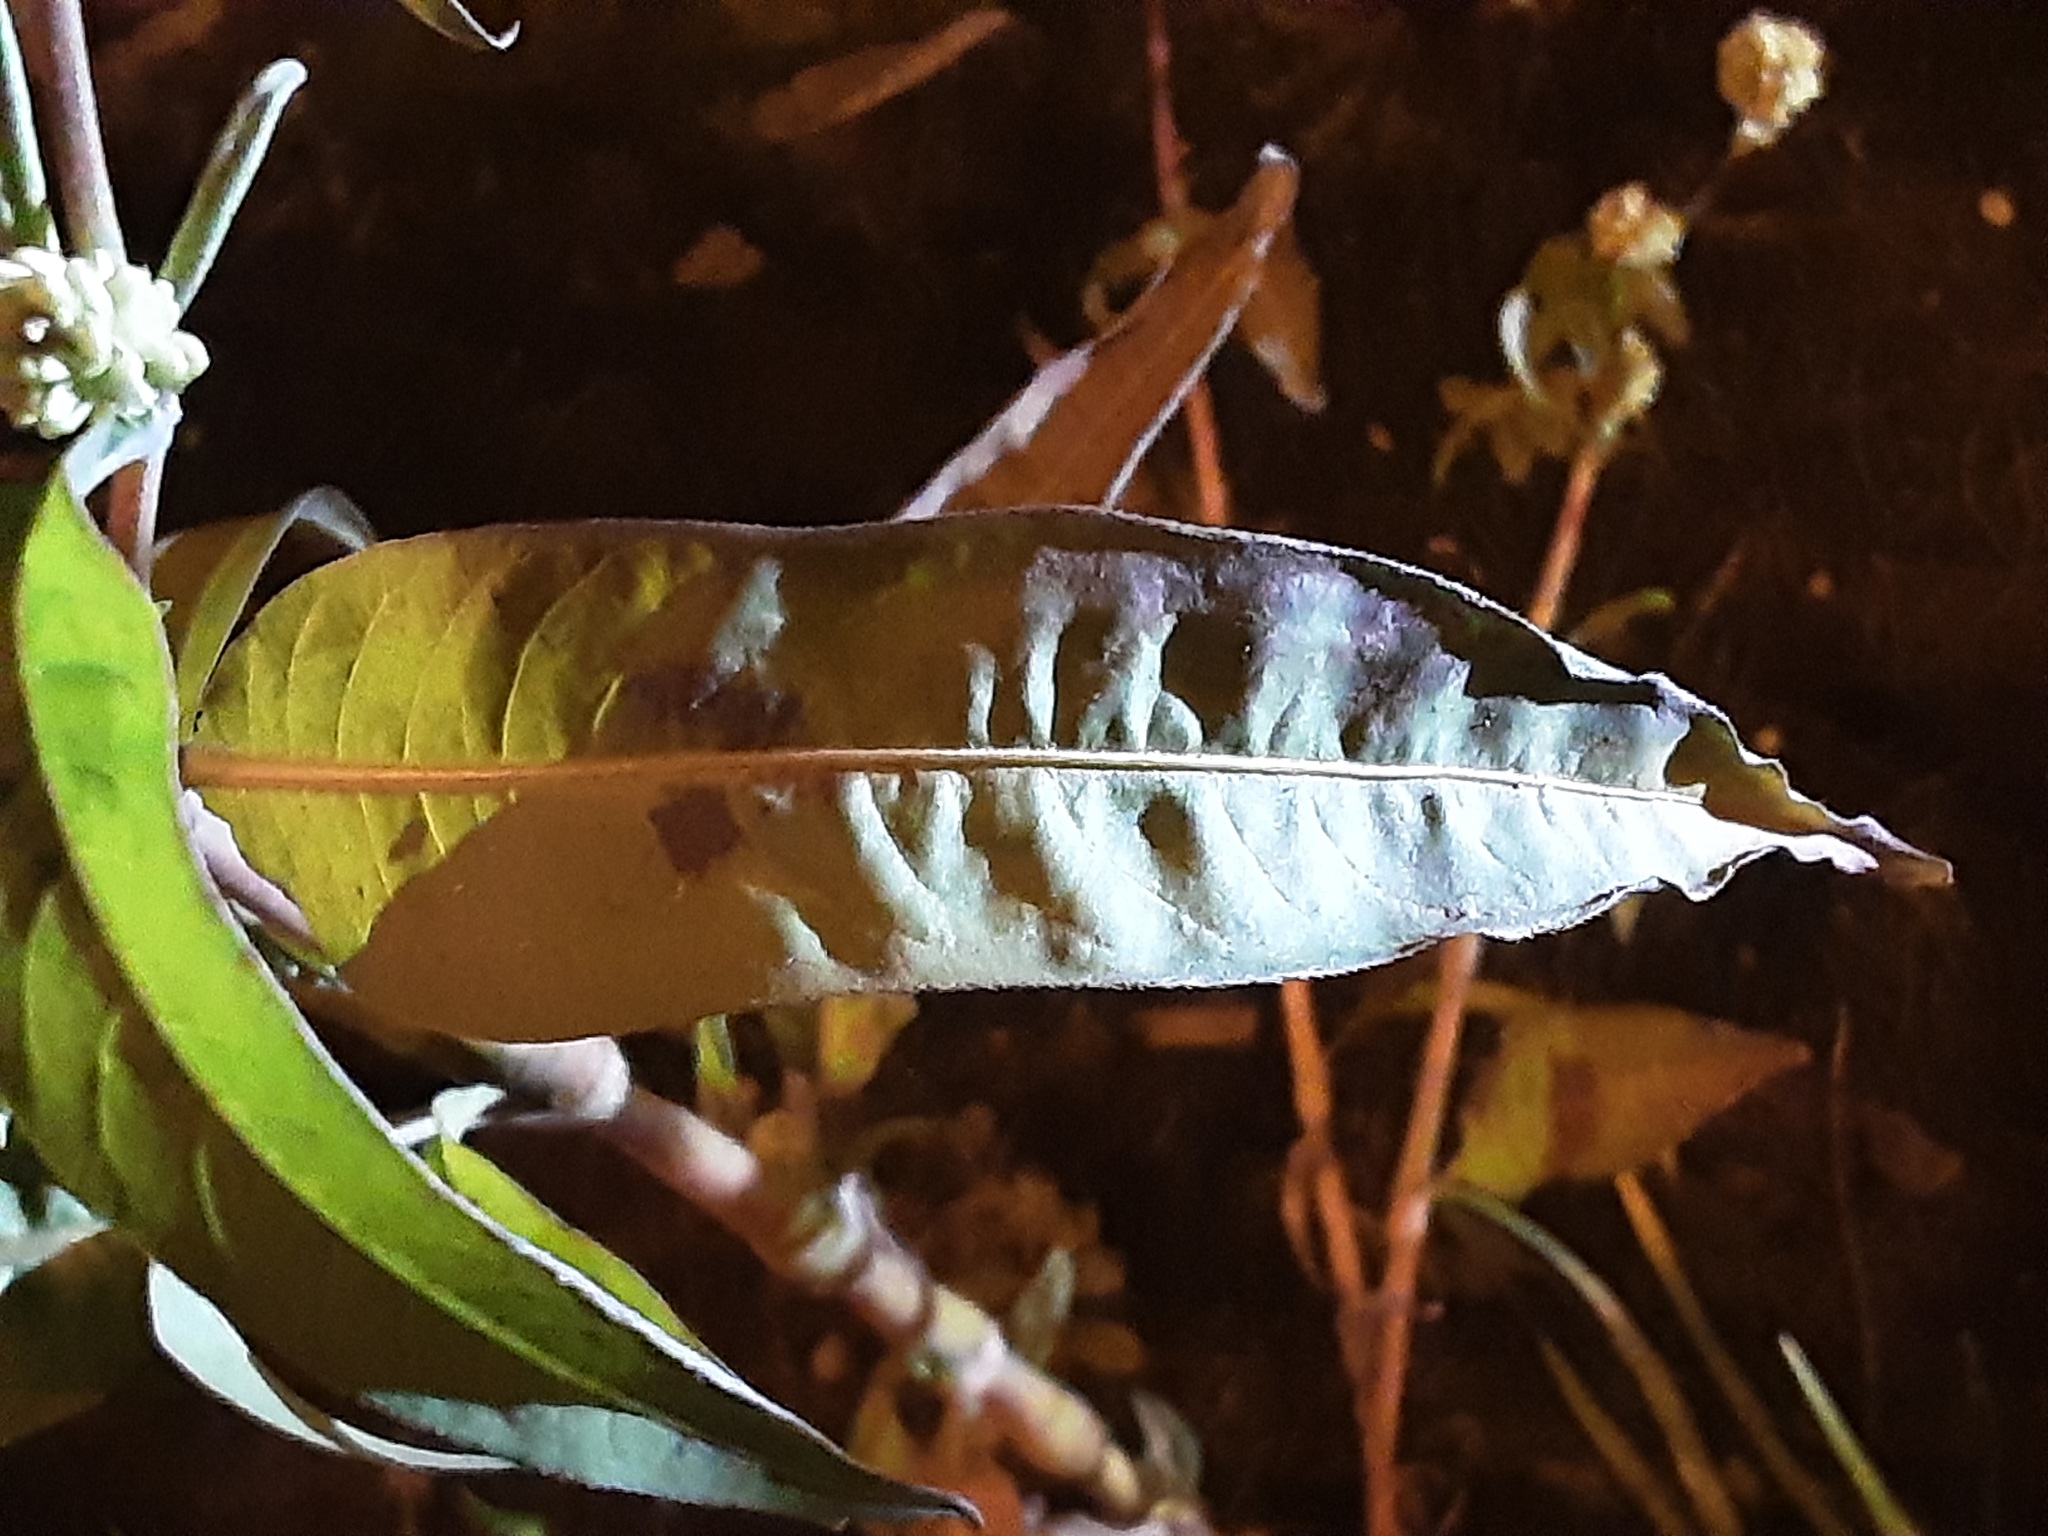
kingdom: Plantae
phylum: Tracheophyta
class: Magnoliopsida
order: Caryophyllales
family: Polygonaceae
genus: Persicaria
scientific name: Persicaria lapathifolia
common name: Curlytop knotweed
